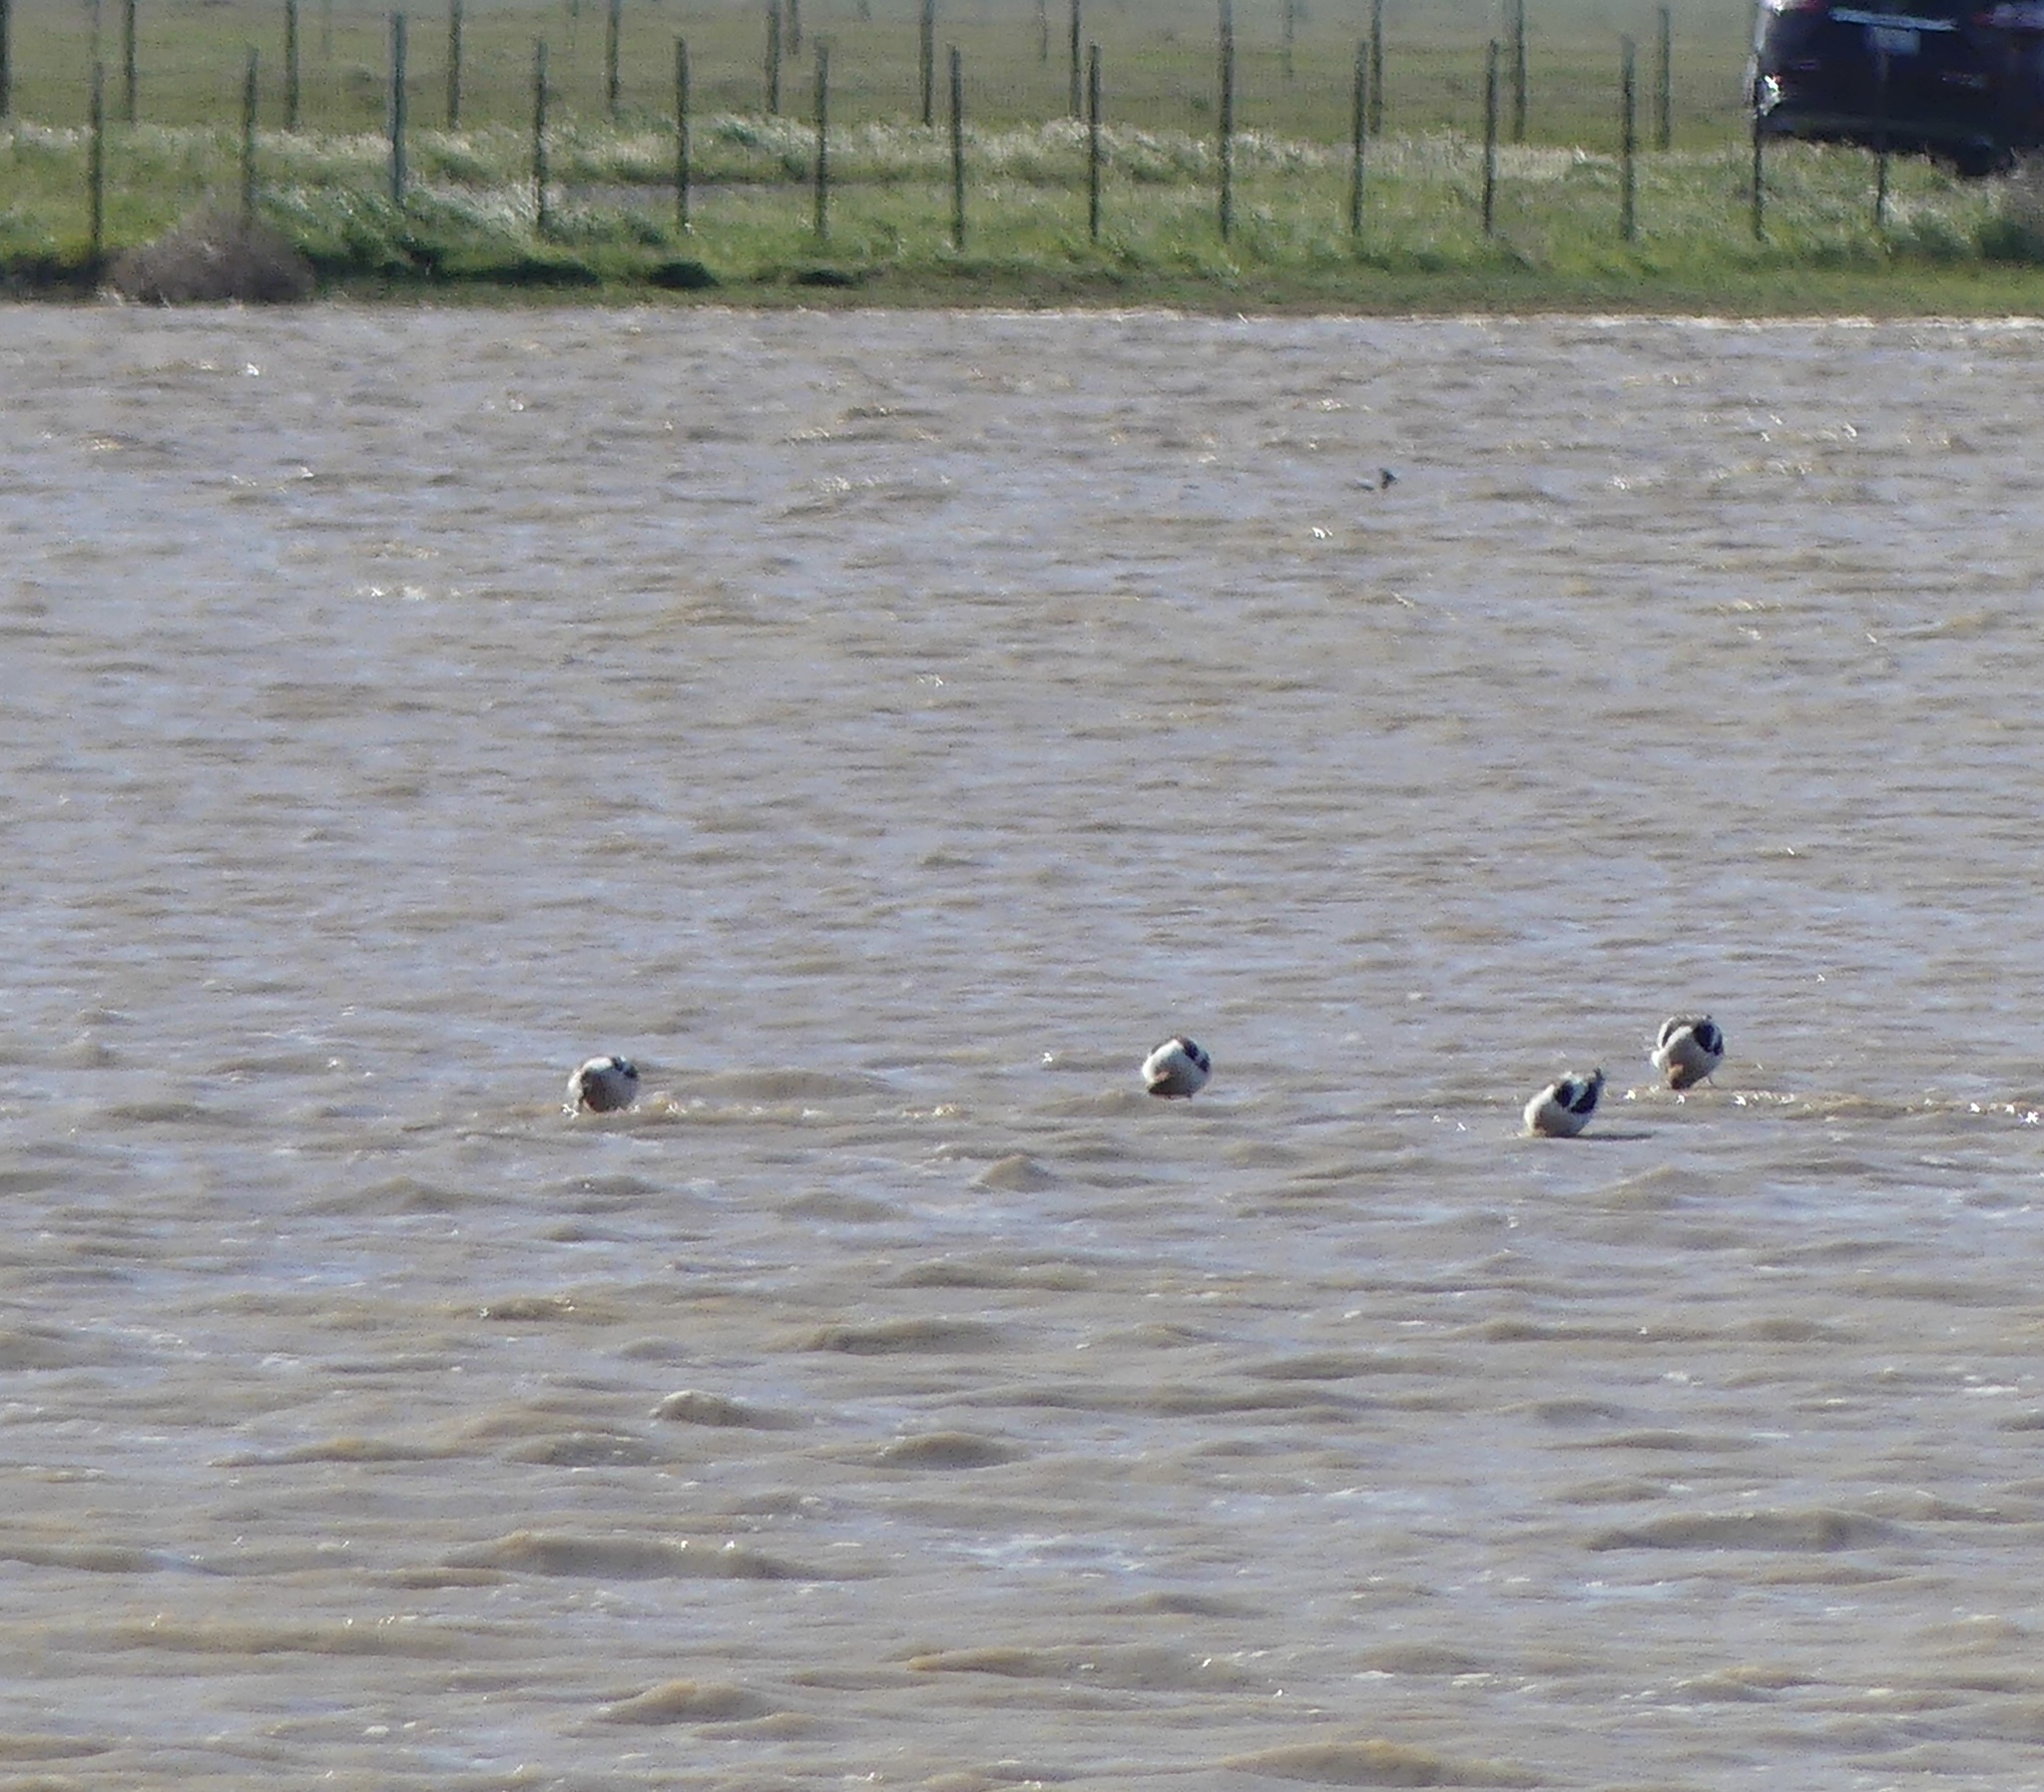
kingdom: Animalia
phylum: Chordata
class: Aves
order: Charadriiformes
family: Recurvirostridae
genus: Recurvirostra
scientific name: Recurvirostra americana
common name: American avocet
